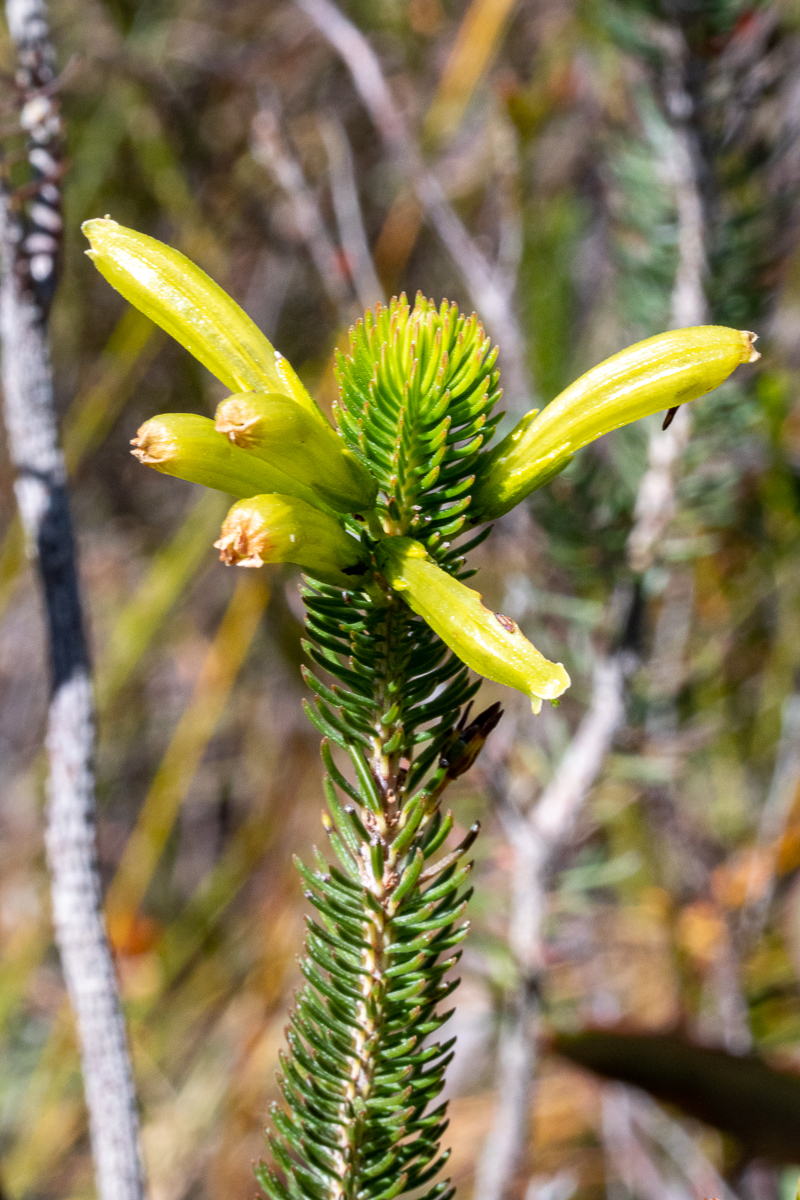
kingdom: Plantae
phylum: Tracheophyta
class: Magnoliopsida
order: Ericales
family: Ericaceae
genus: Erica
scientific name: Erica viscaria
